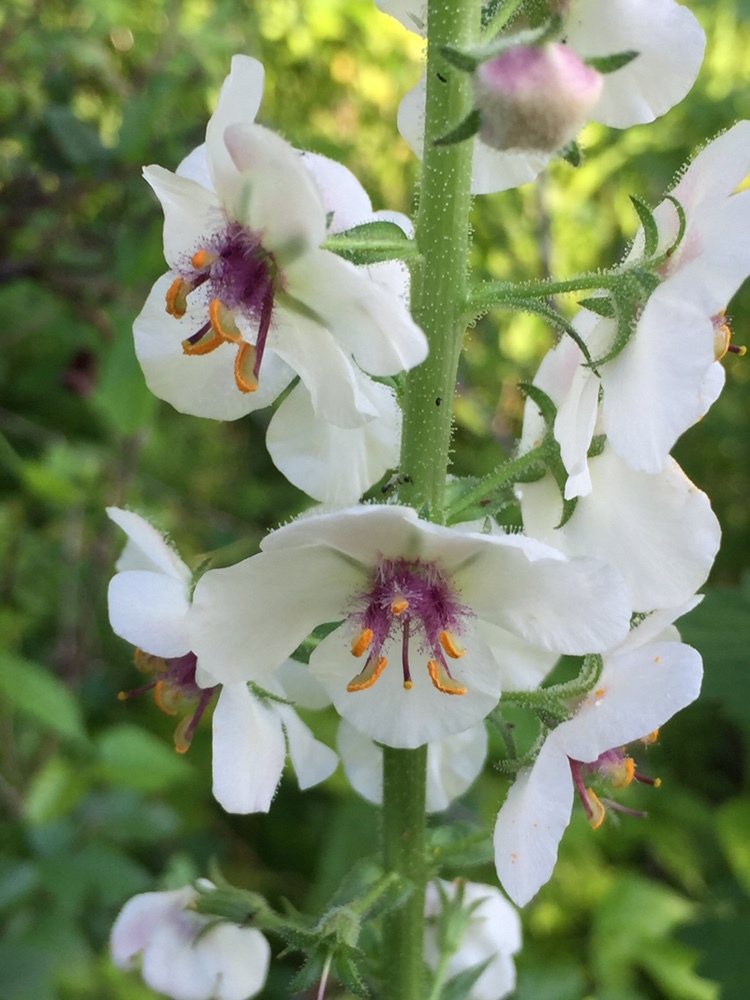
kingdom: Plantae
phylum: Tracheophyta
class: Magnoliopsida
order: Lamiales
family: Scrophulariaceae
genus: Verbascum
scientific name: Verbascum blattaria
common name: Moth mullein
